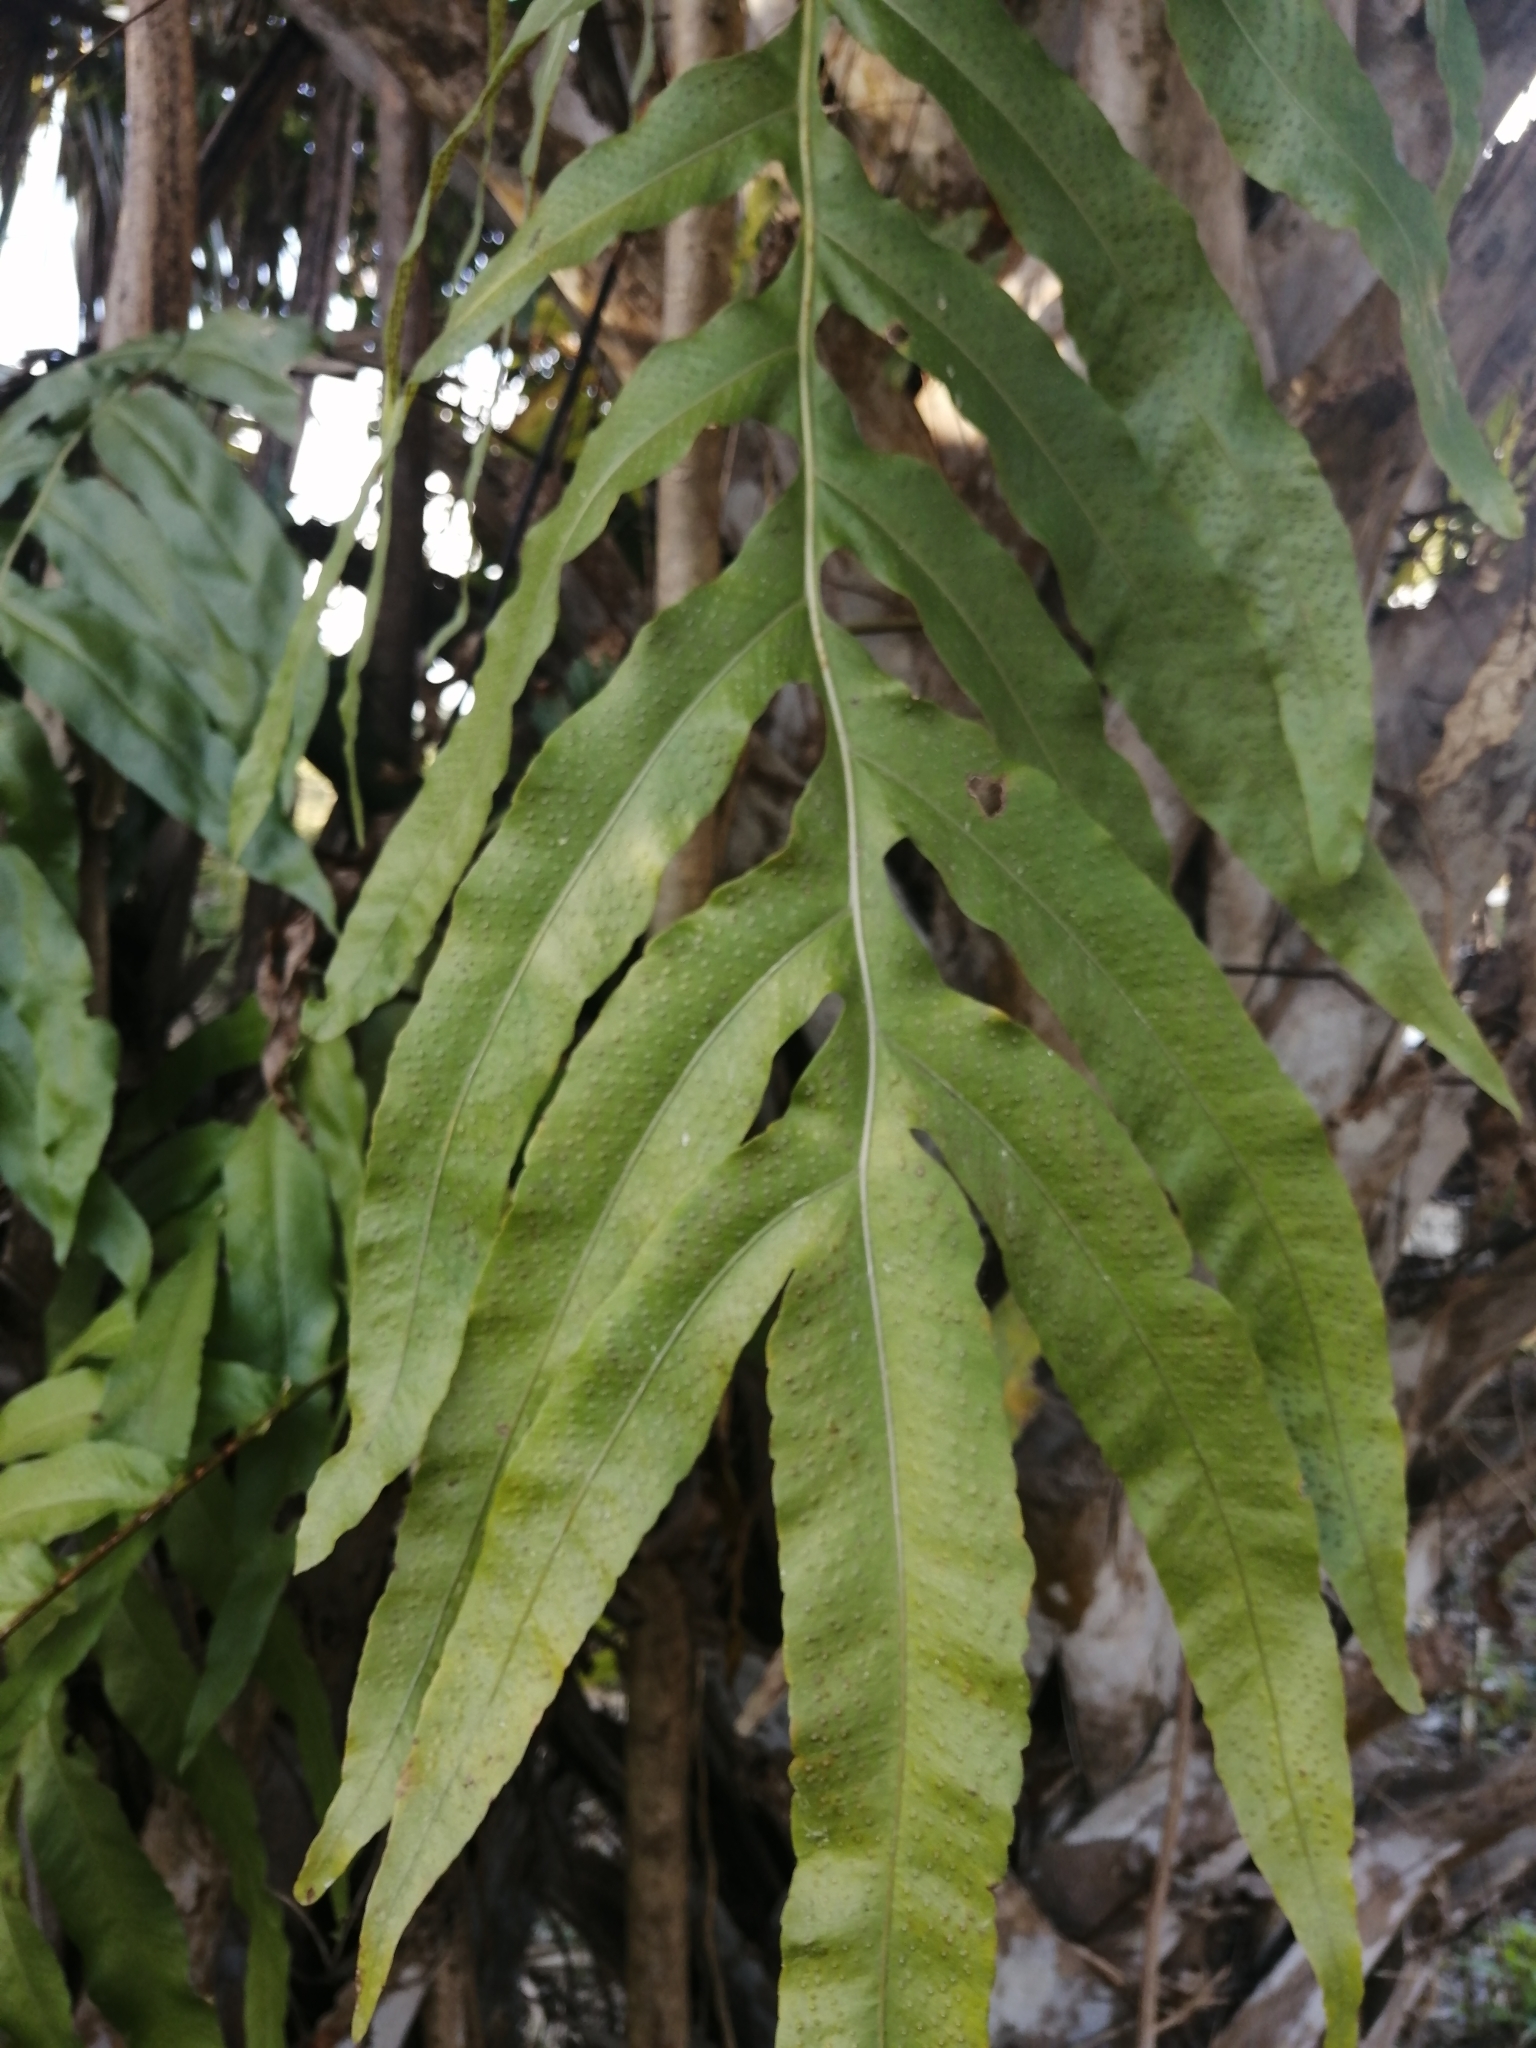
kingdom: Plantae
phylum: Tracheophyta
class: Polypodiopsida
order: Polypodiales
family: Polypodiaceae
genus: Phlebodium
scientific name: Phlebodium aureum
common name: Gold-foot fern
